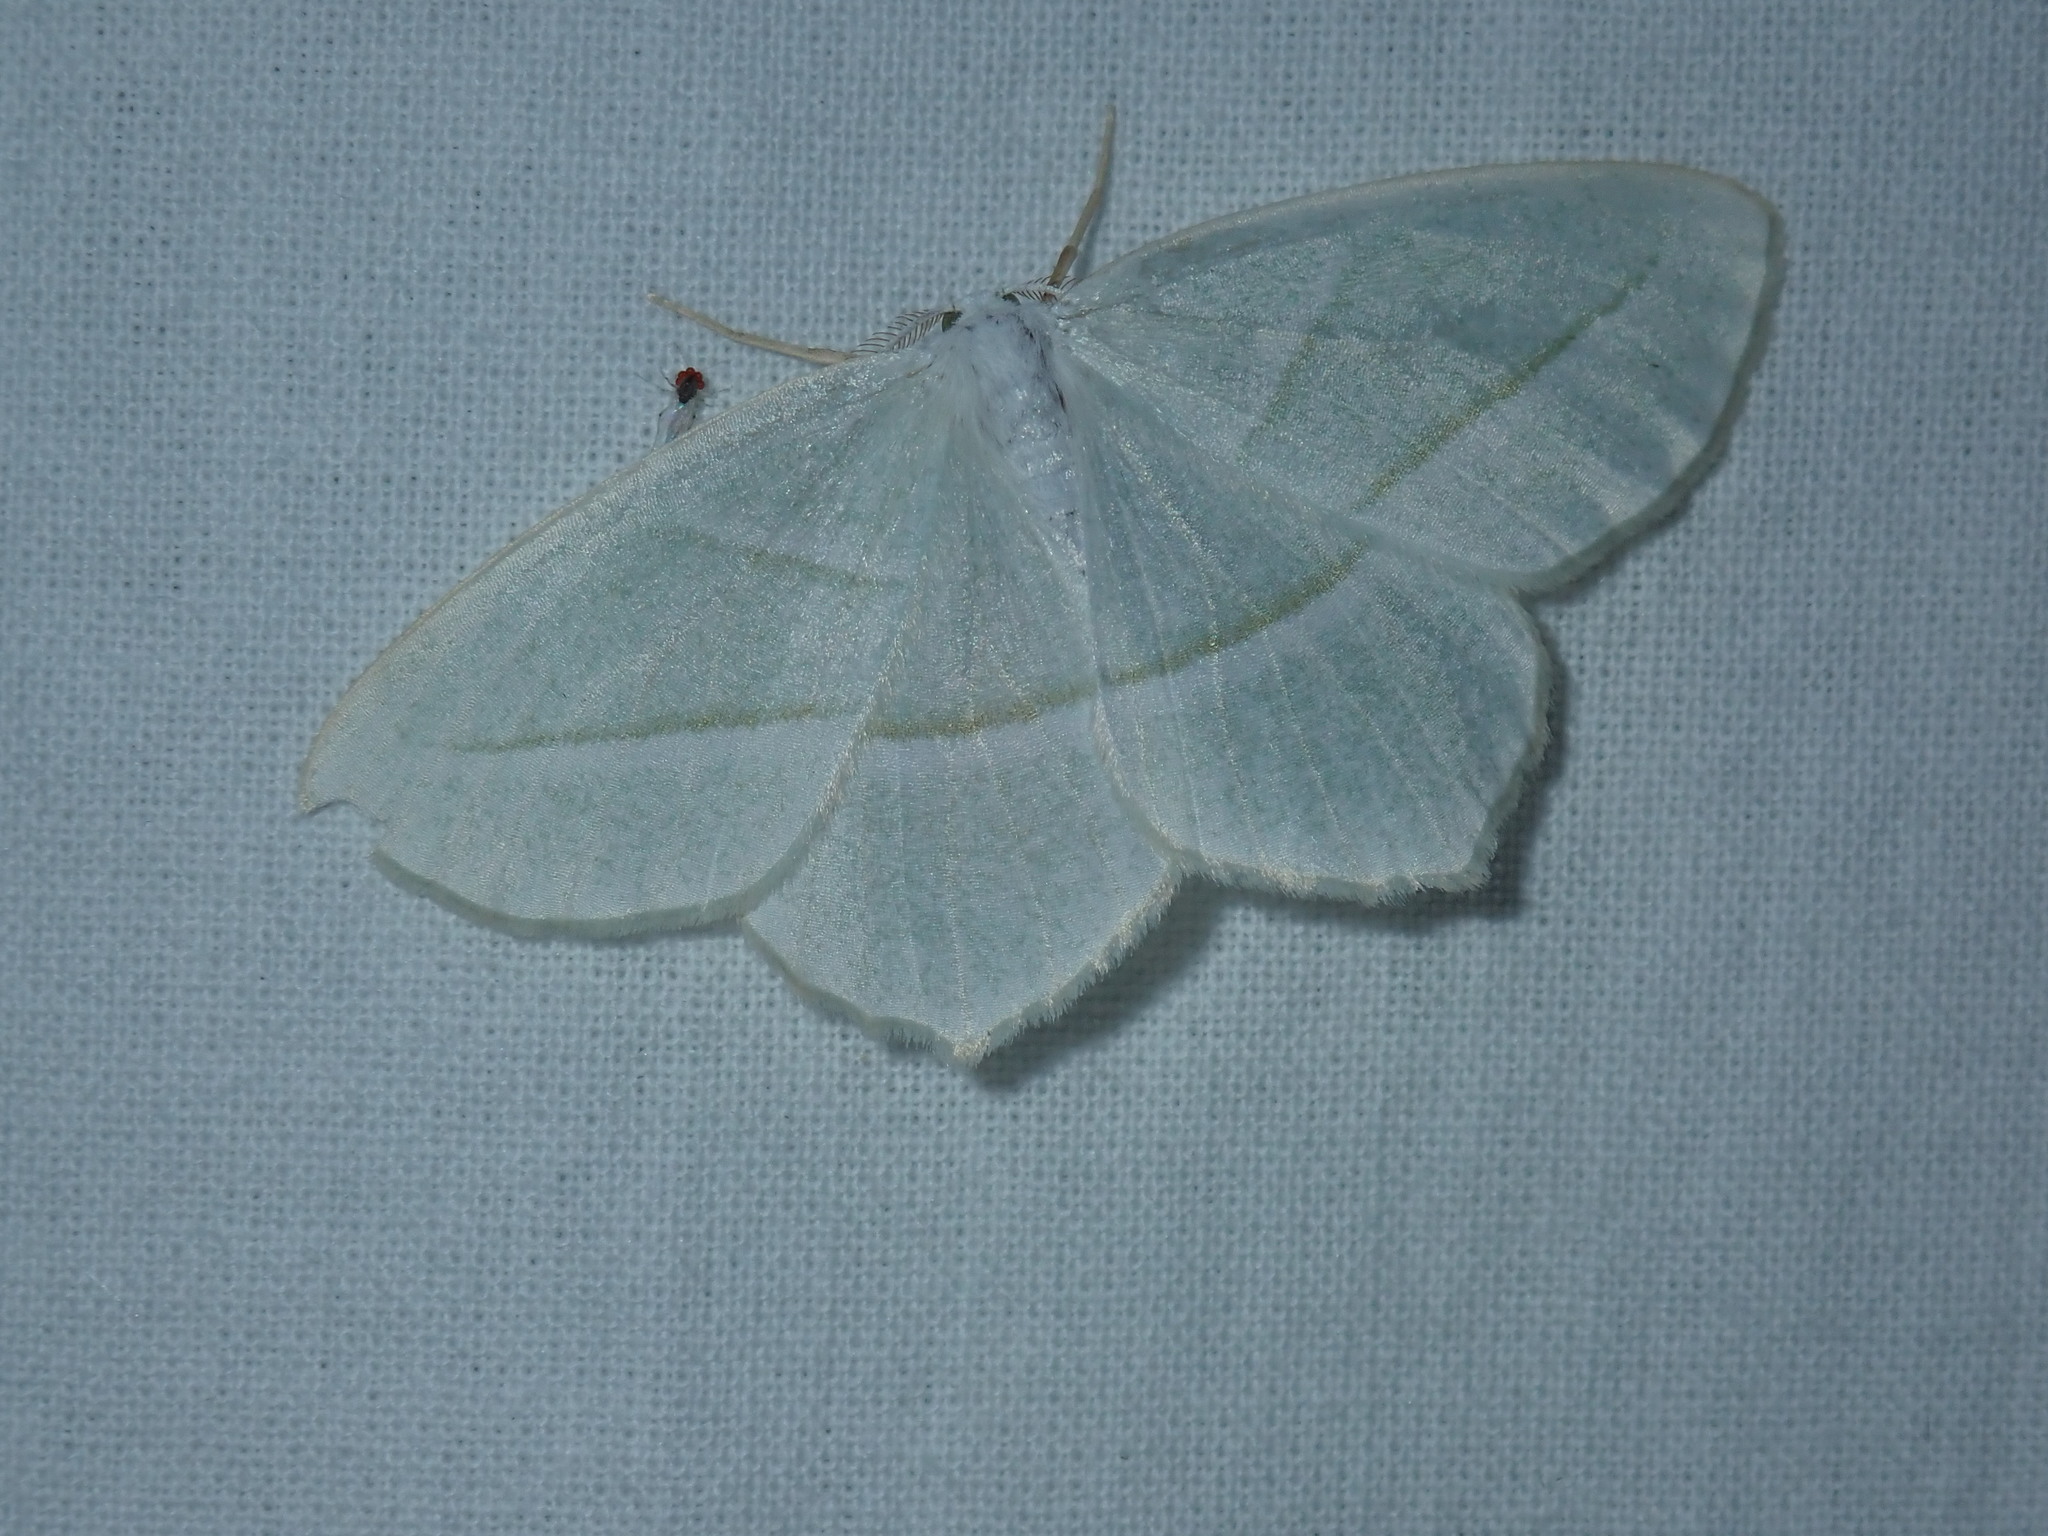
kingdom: Animalia
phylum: Arthropoda
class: Insecta
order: Lepidoptera
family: Geometridae
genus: Campaea
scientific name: Campaea perlata
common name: Fringed looper
